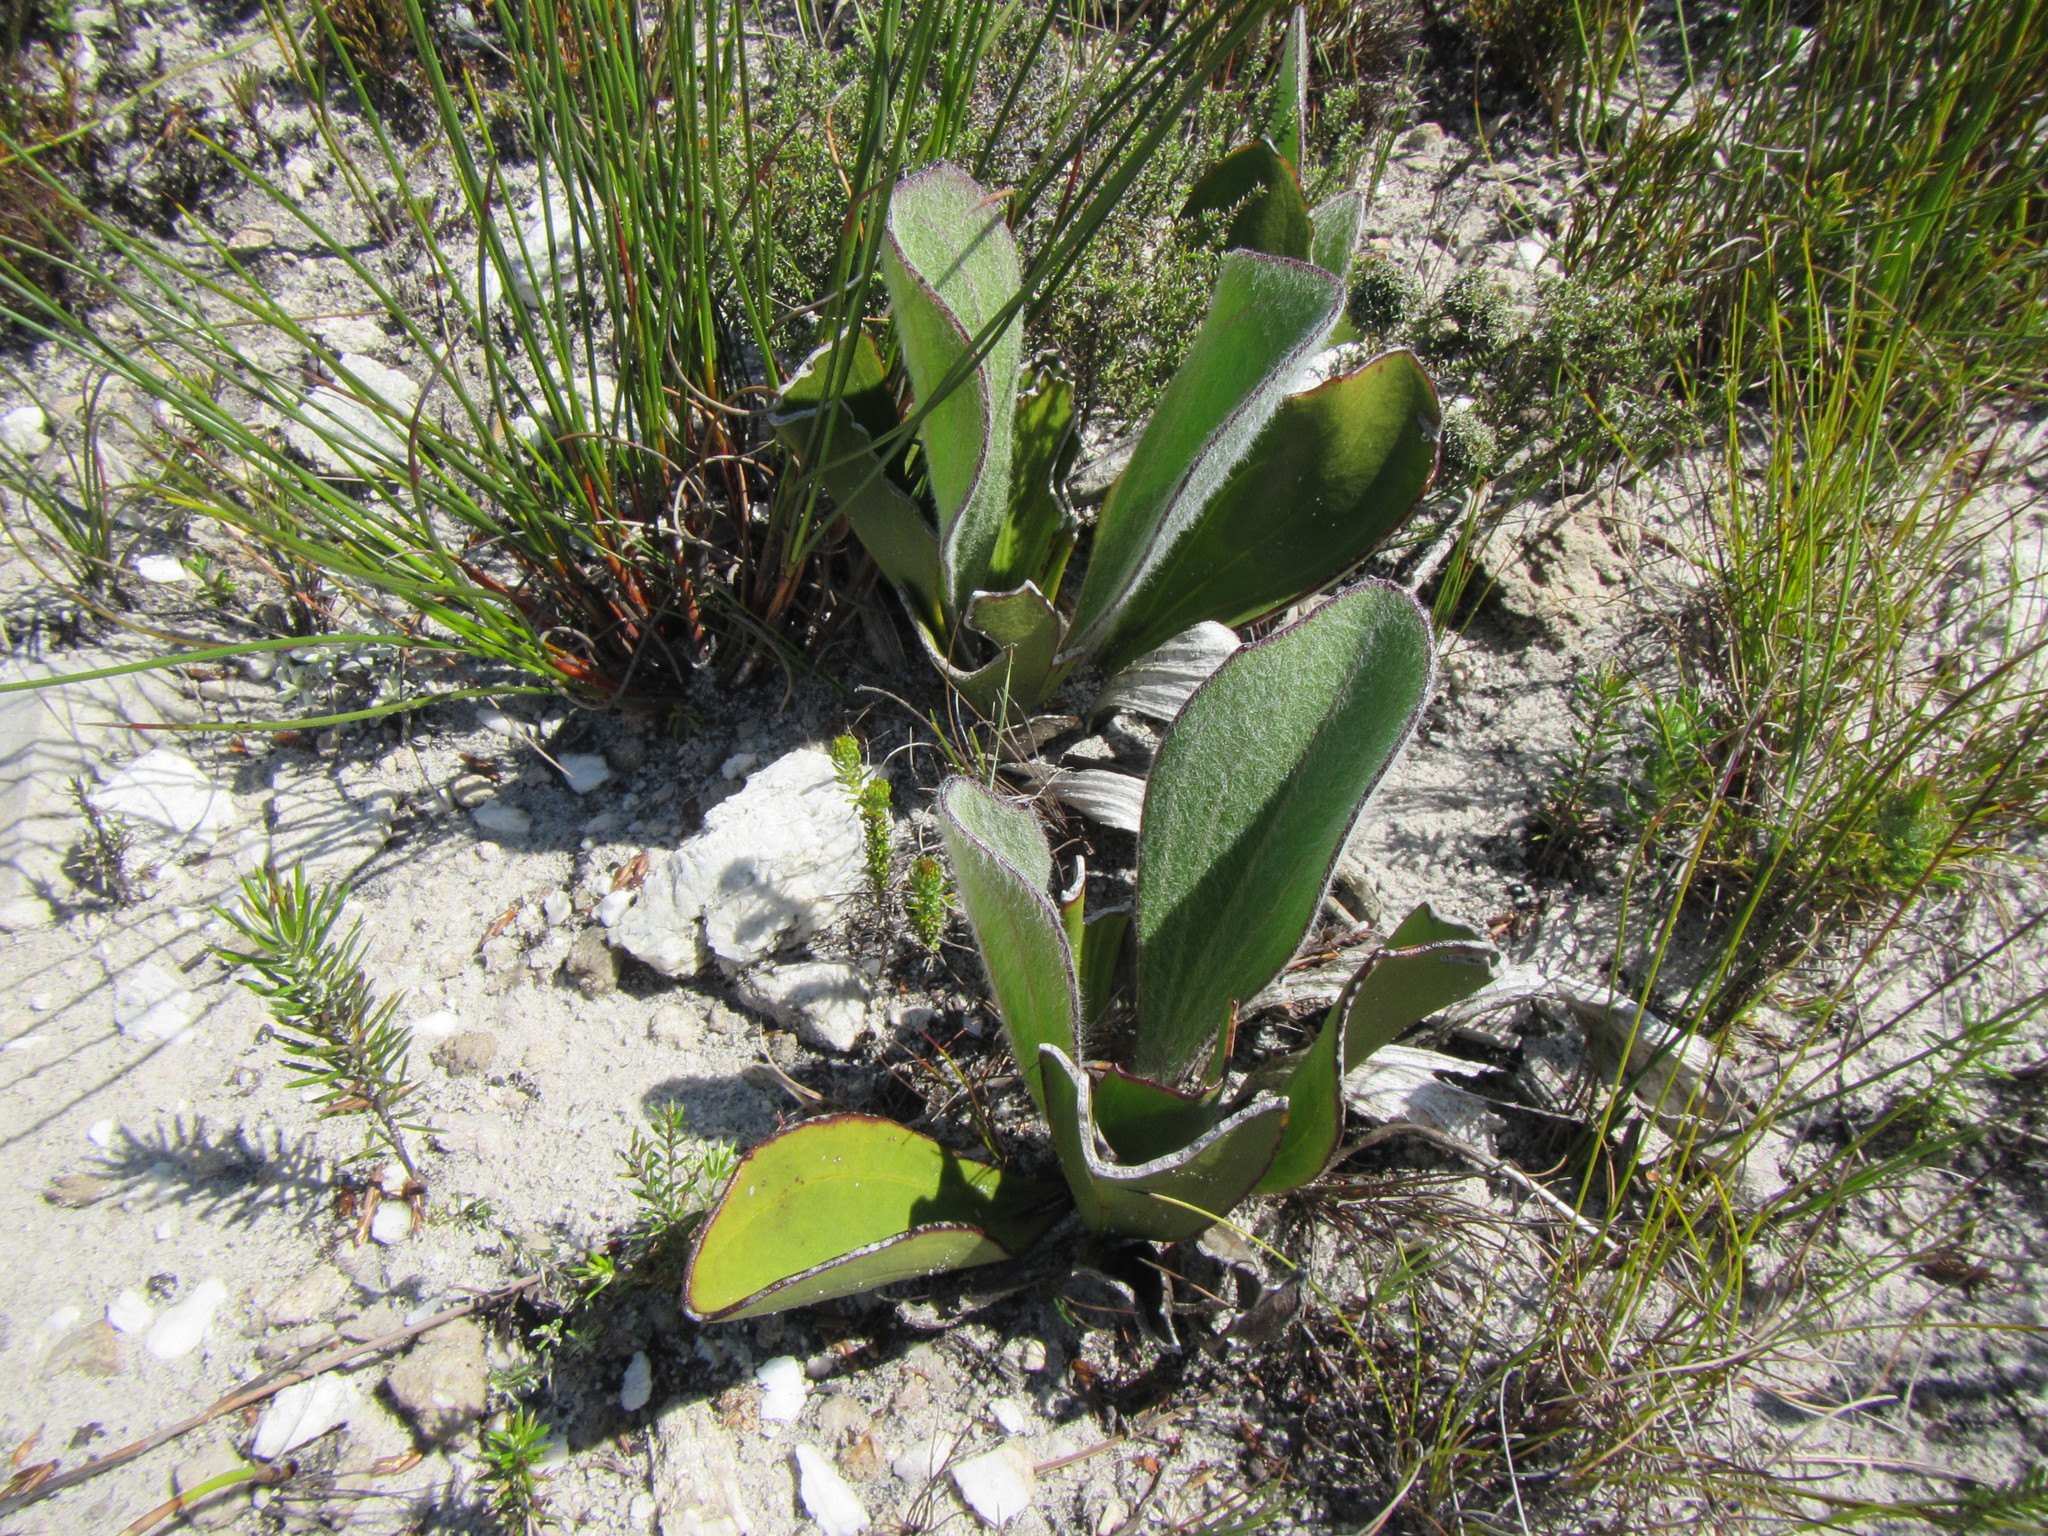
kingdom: Plantae
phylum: Tracheophyta
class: Magnoliopsida
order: Asterales
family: Asteraceae
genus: Mairia
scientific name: Mairia coriacea
